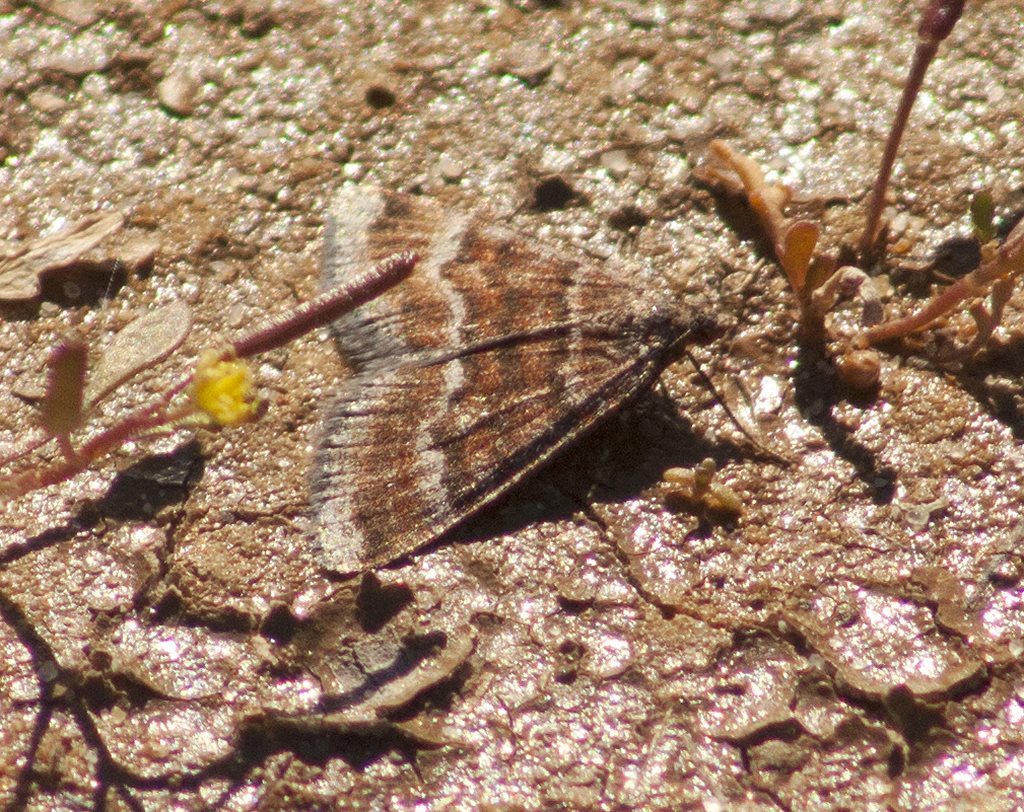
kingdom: Animalia
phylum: Arthropoda
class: Insecta
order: Lepidoptera
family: Geometridae
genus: Paramelora
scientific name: Paramelora lychnota
